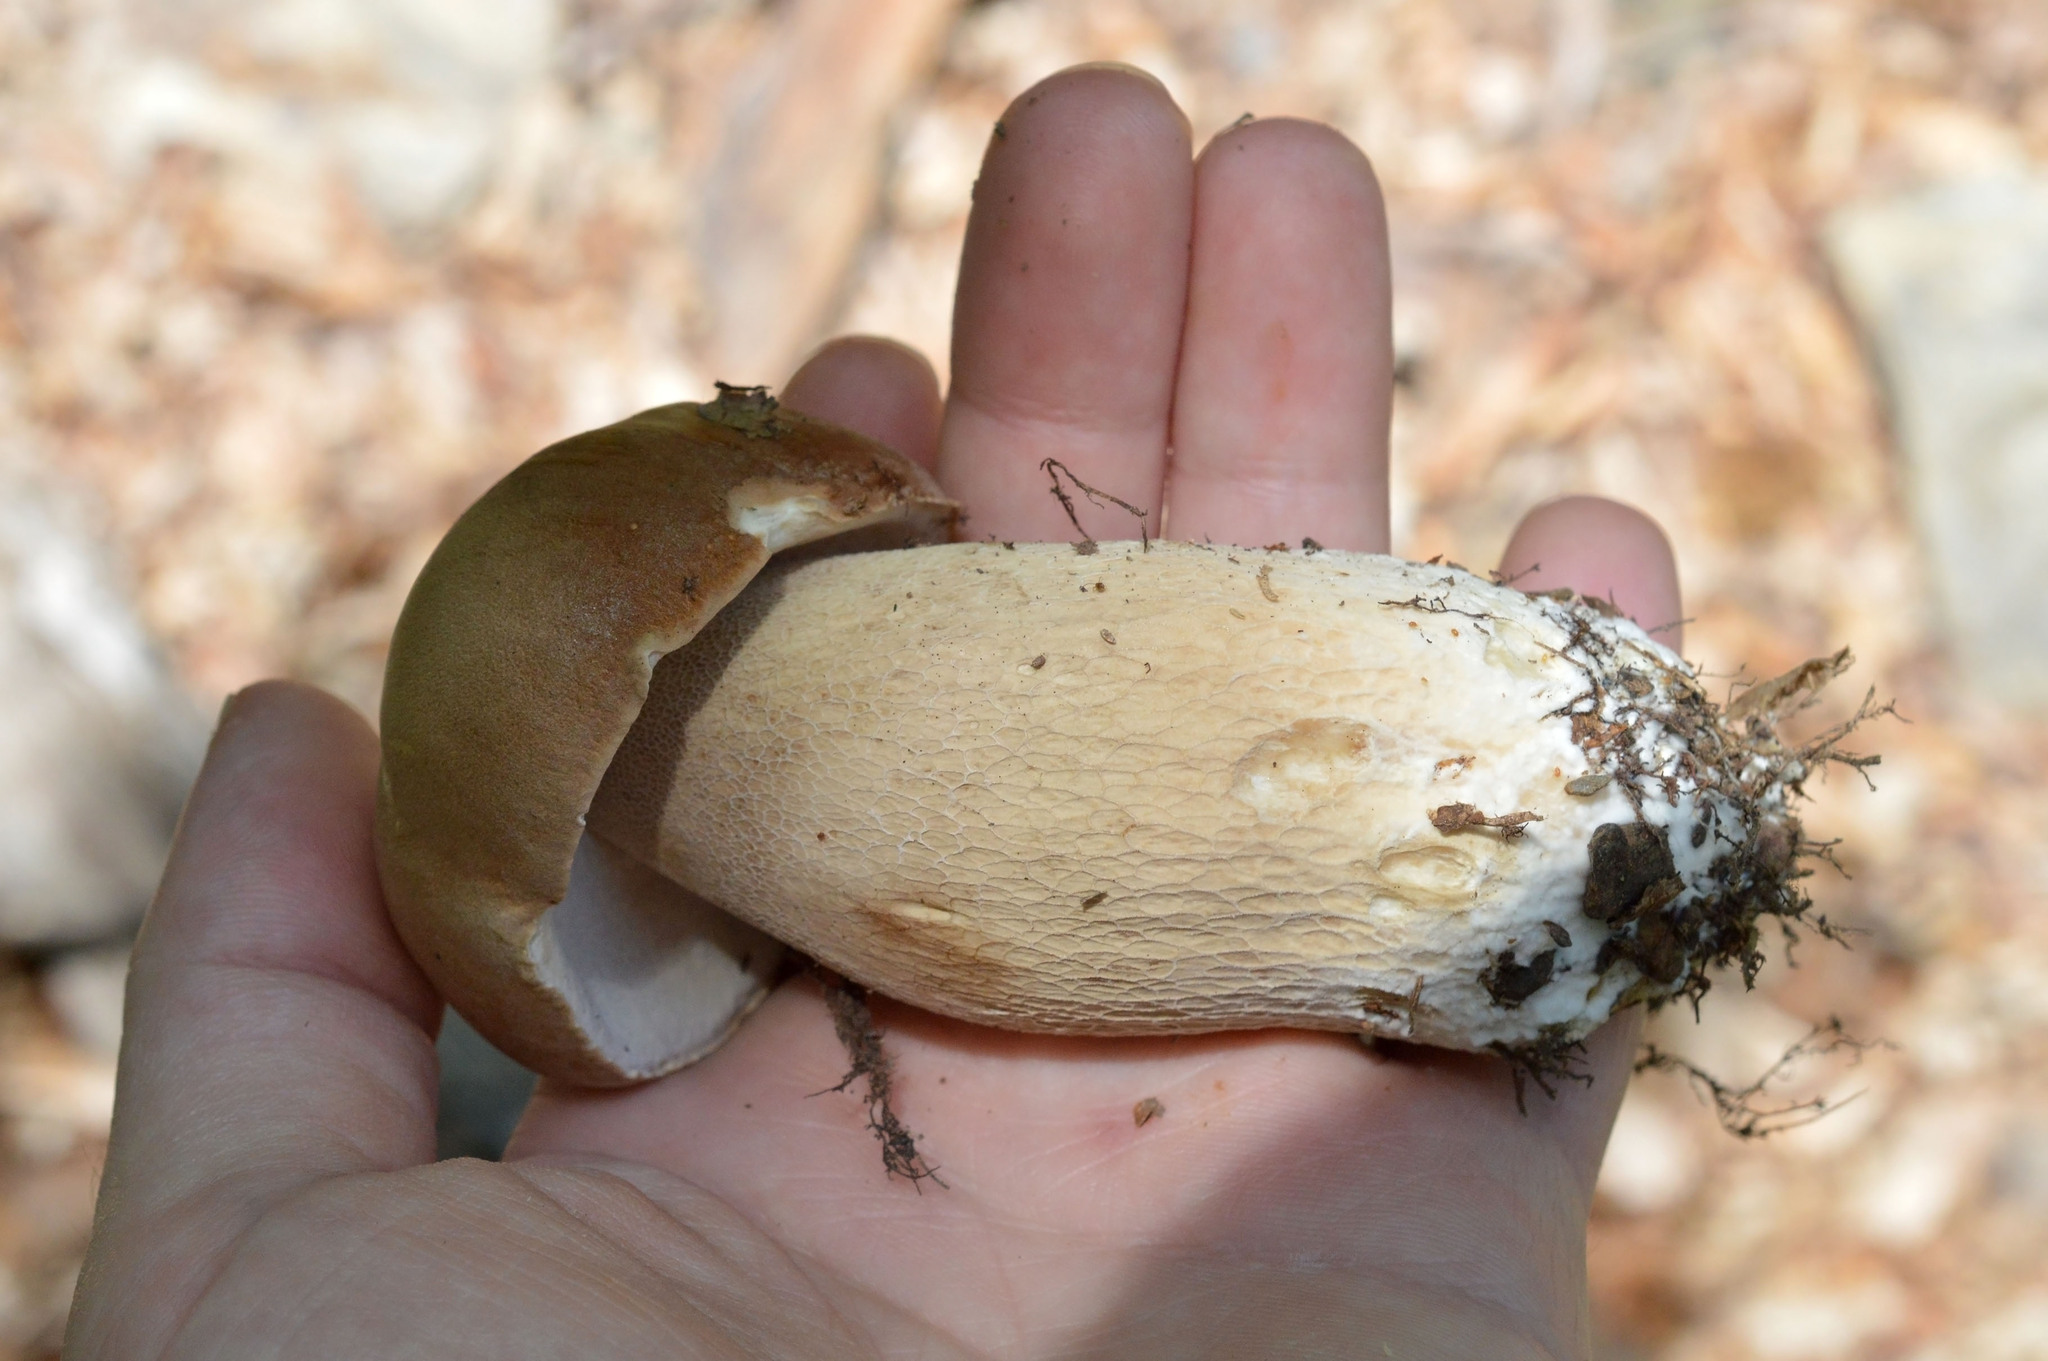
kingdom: Fungi
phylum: Basidiomycota
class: Agaricomycetes
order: Boletales
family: Boletaceae
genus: Boletus
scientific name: Boletus reticulatus
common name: Summer bolete
